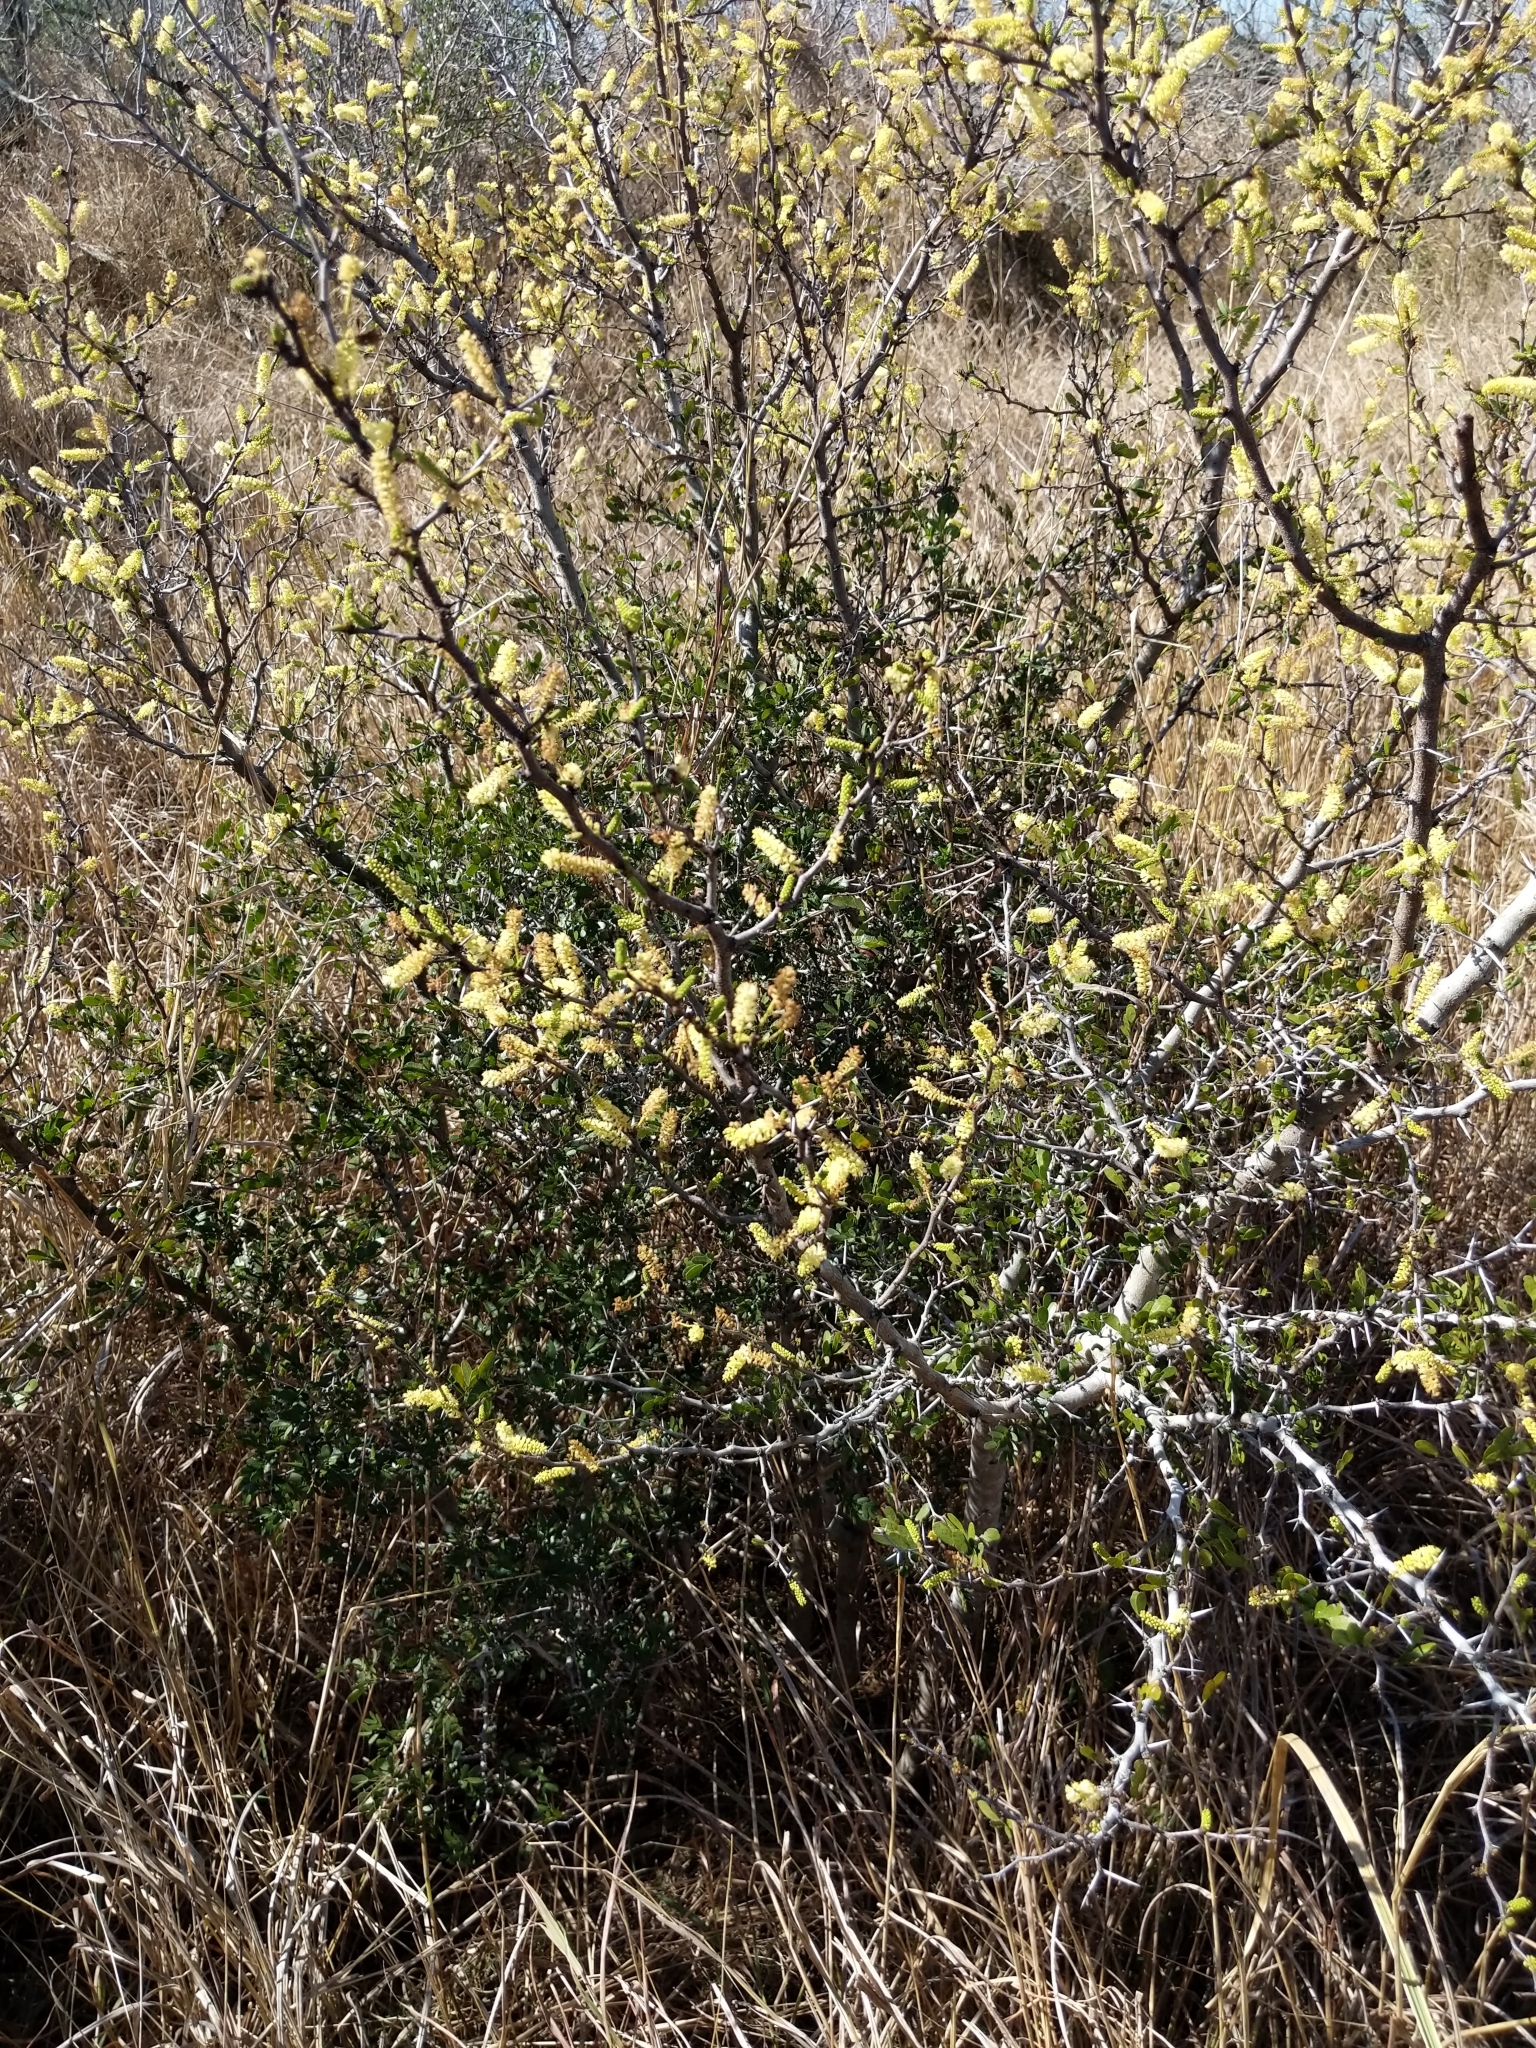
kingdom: Plantae
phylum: Tracheophyta
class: Magnoliopsida
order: Fabales
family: Fabaceae
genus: Vachellia
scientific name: Vachellia rigidula
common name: Blackbrush
